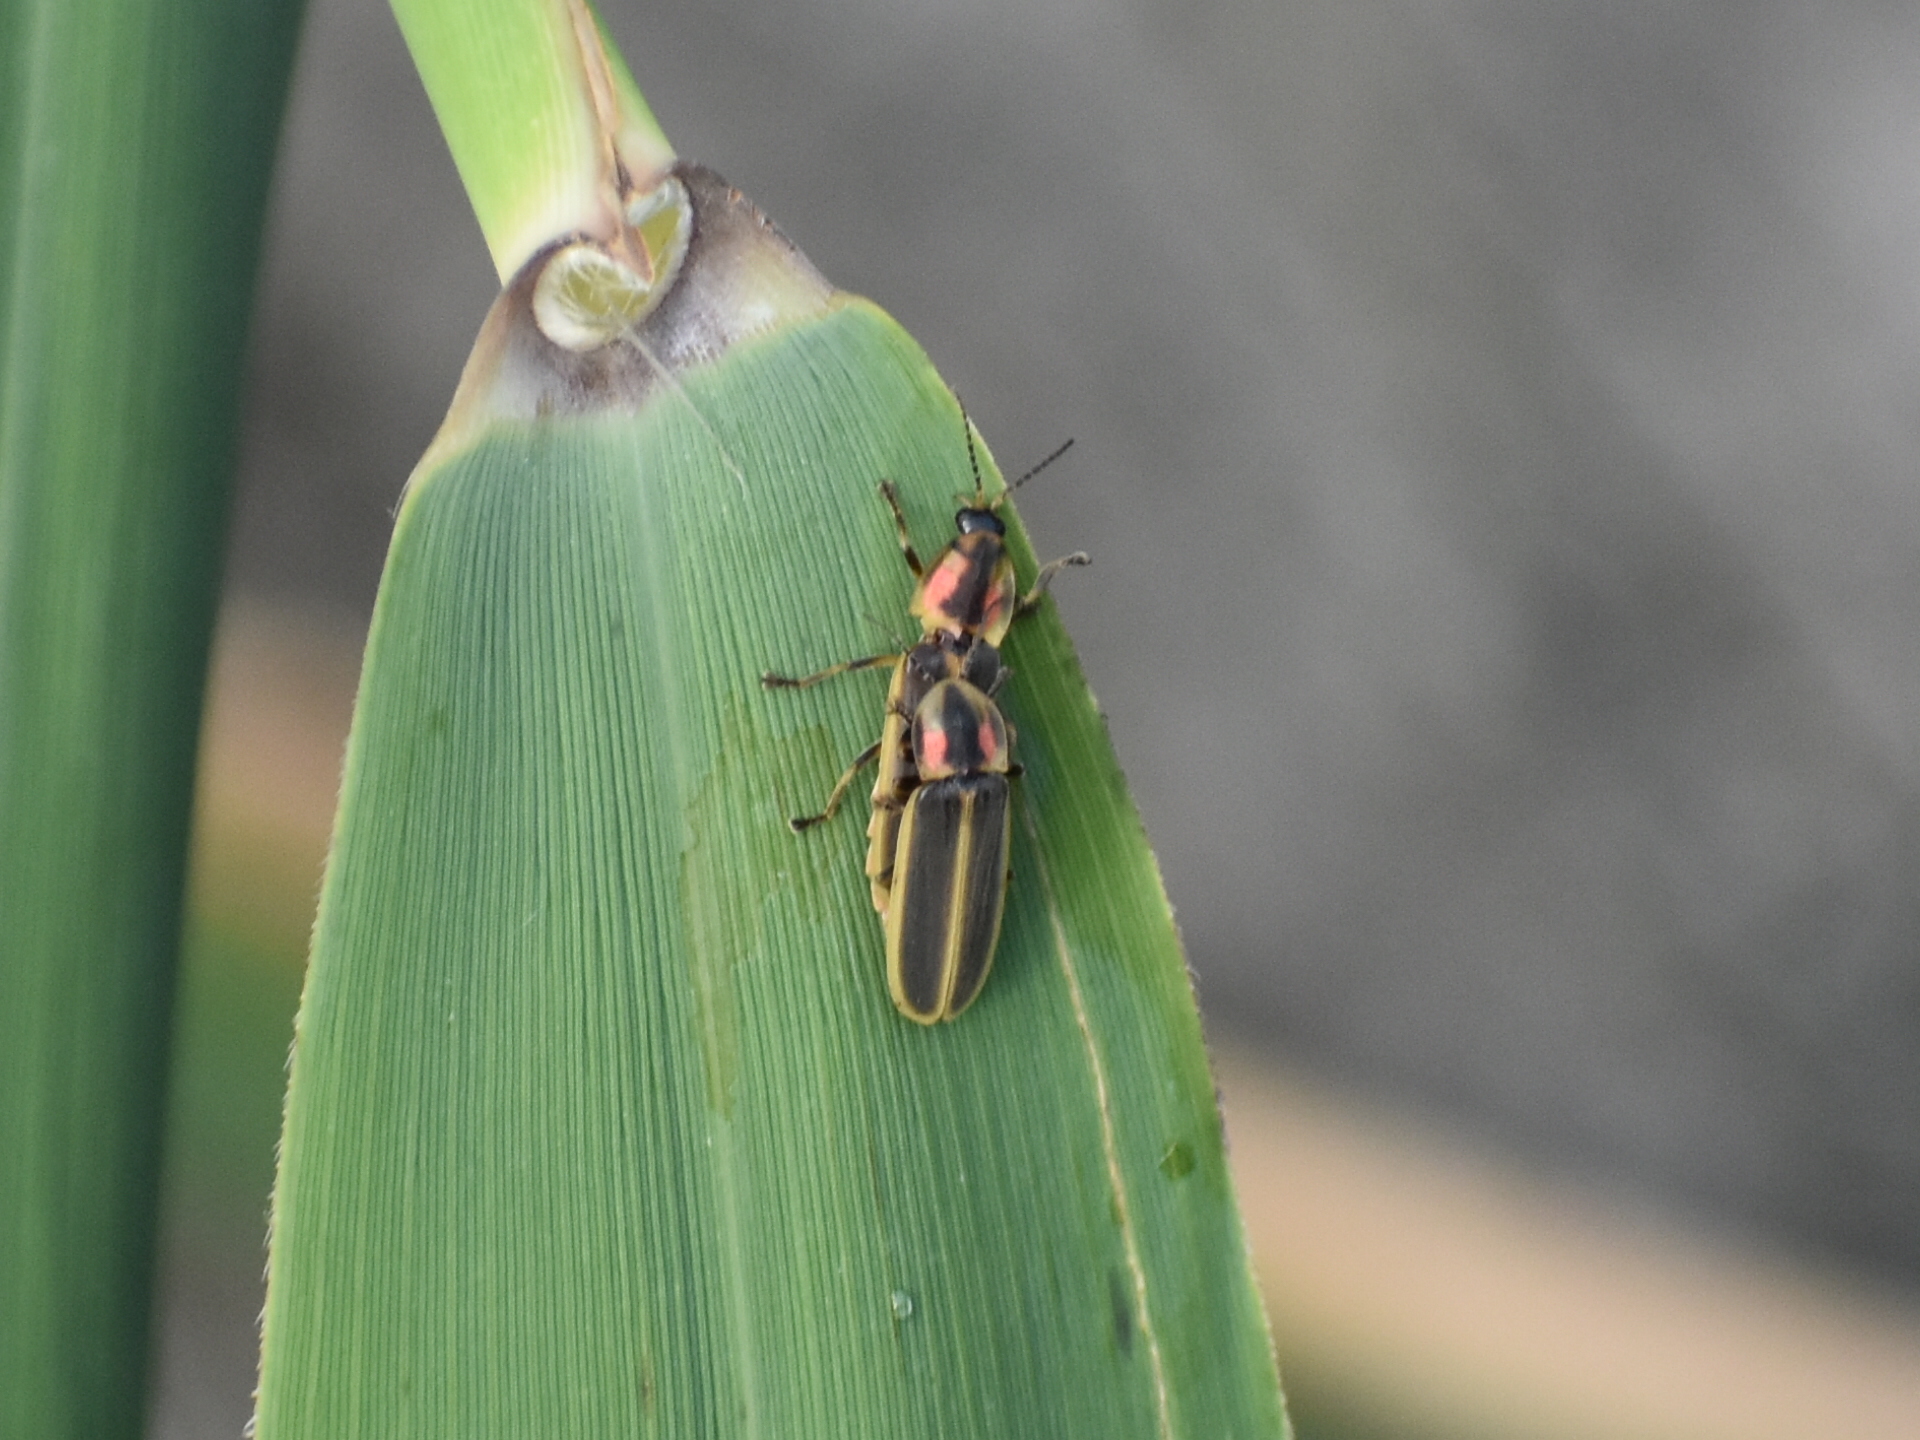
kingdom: Animalia
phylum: Arthropoda
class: Insecta
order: Coleoptera
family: Lampyridae
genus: Pyractomena
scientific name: Pyractomena angulata
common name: Candle firefly
